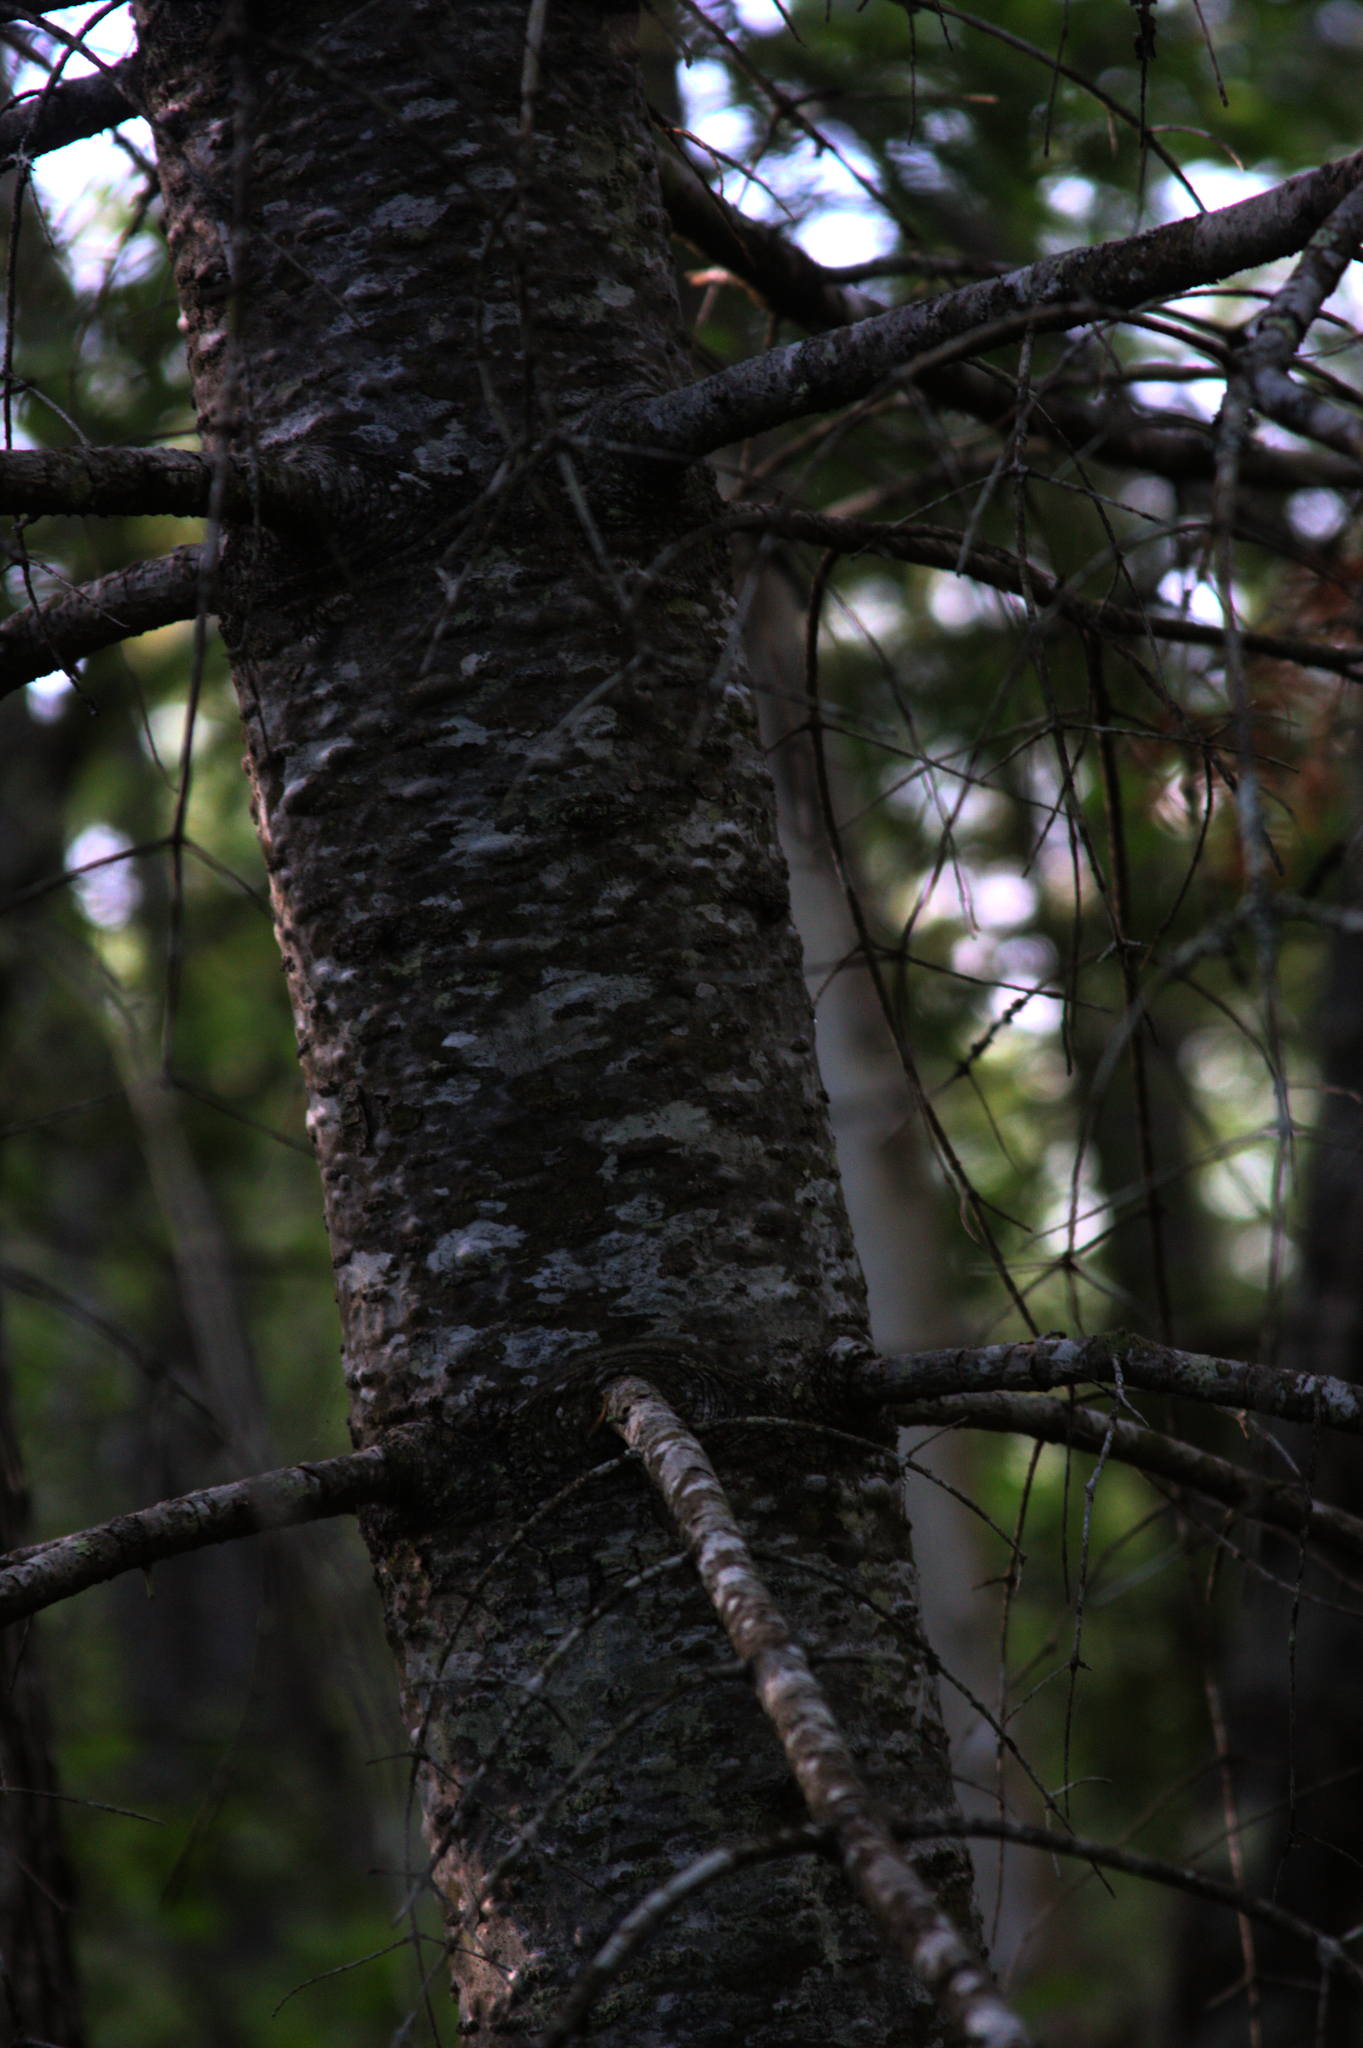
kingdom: Plantae
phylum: Tracheophyta
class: Pinopsida
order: Pinales
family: Pinaceae
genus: Abies
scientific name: Abies balsamea
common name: Balsam fir
